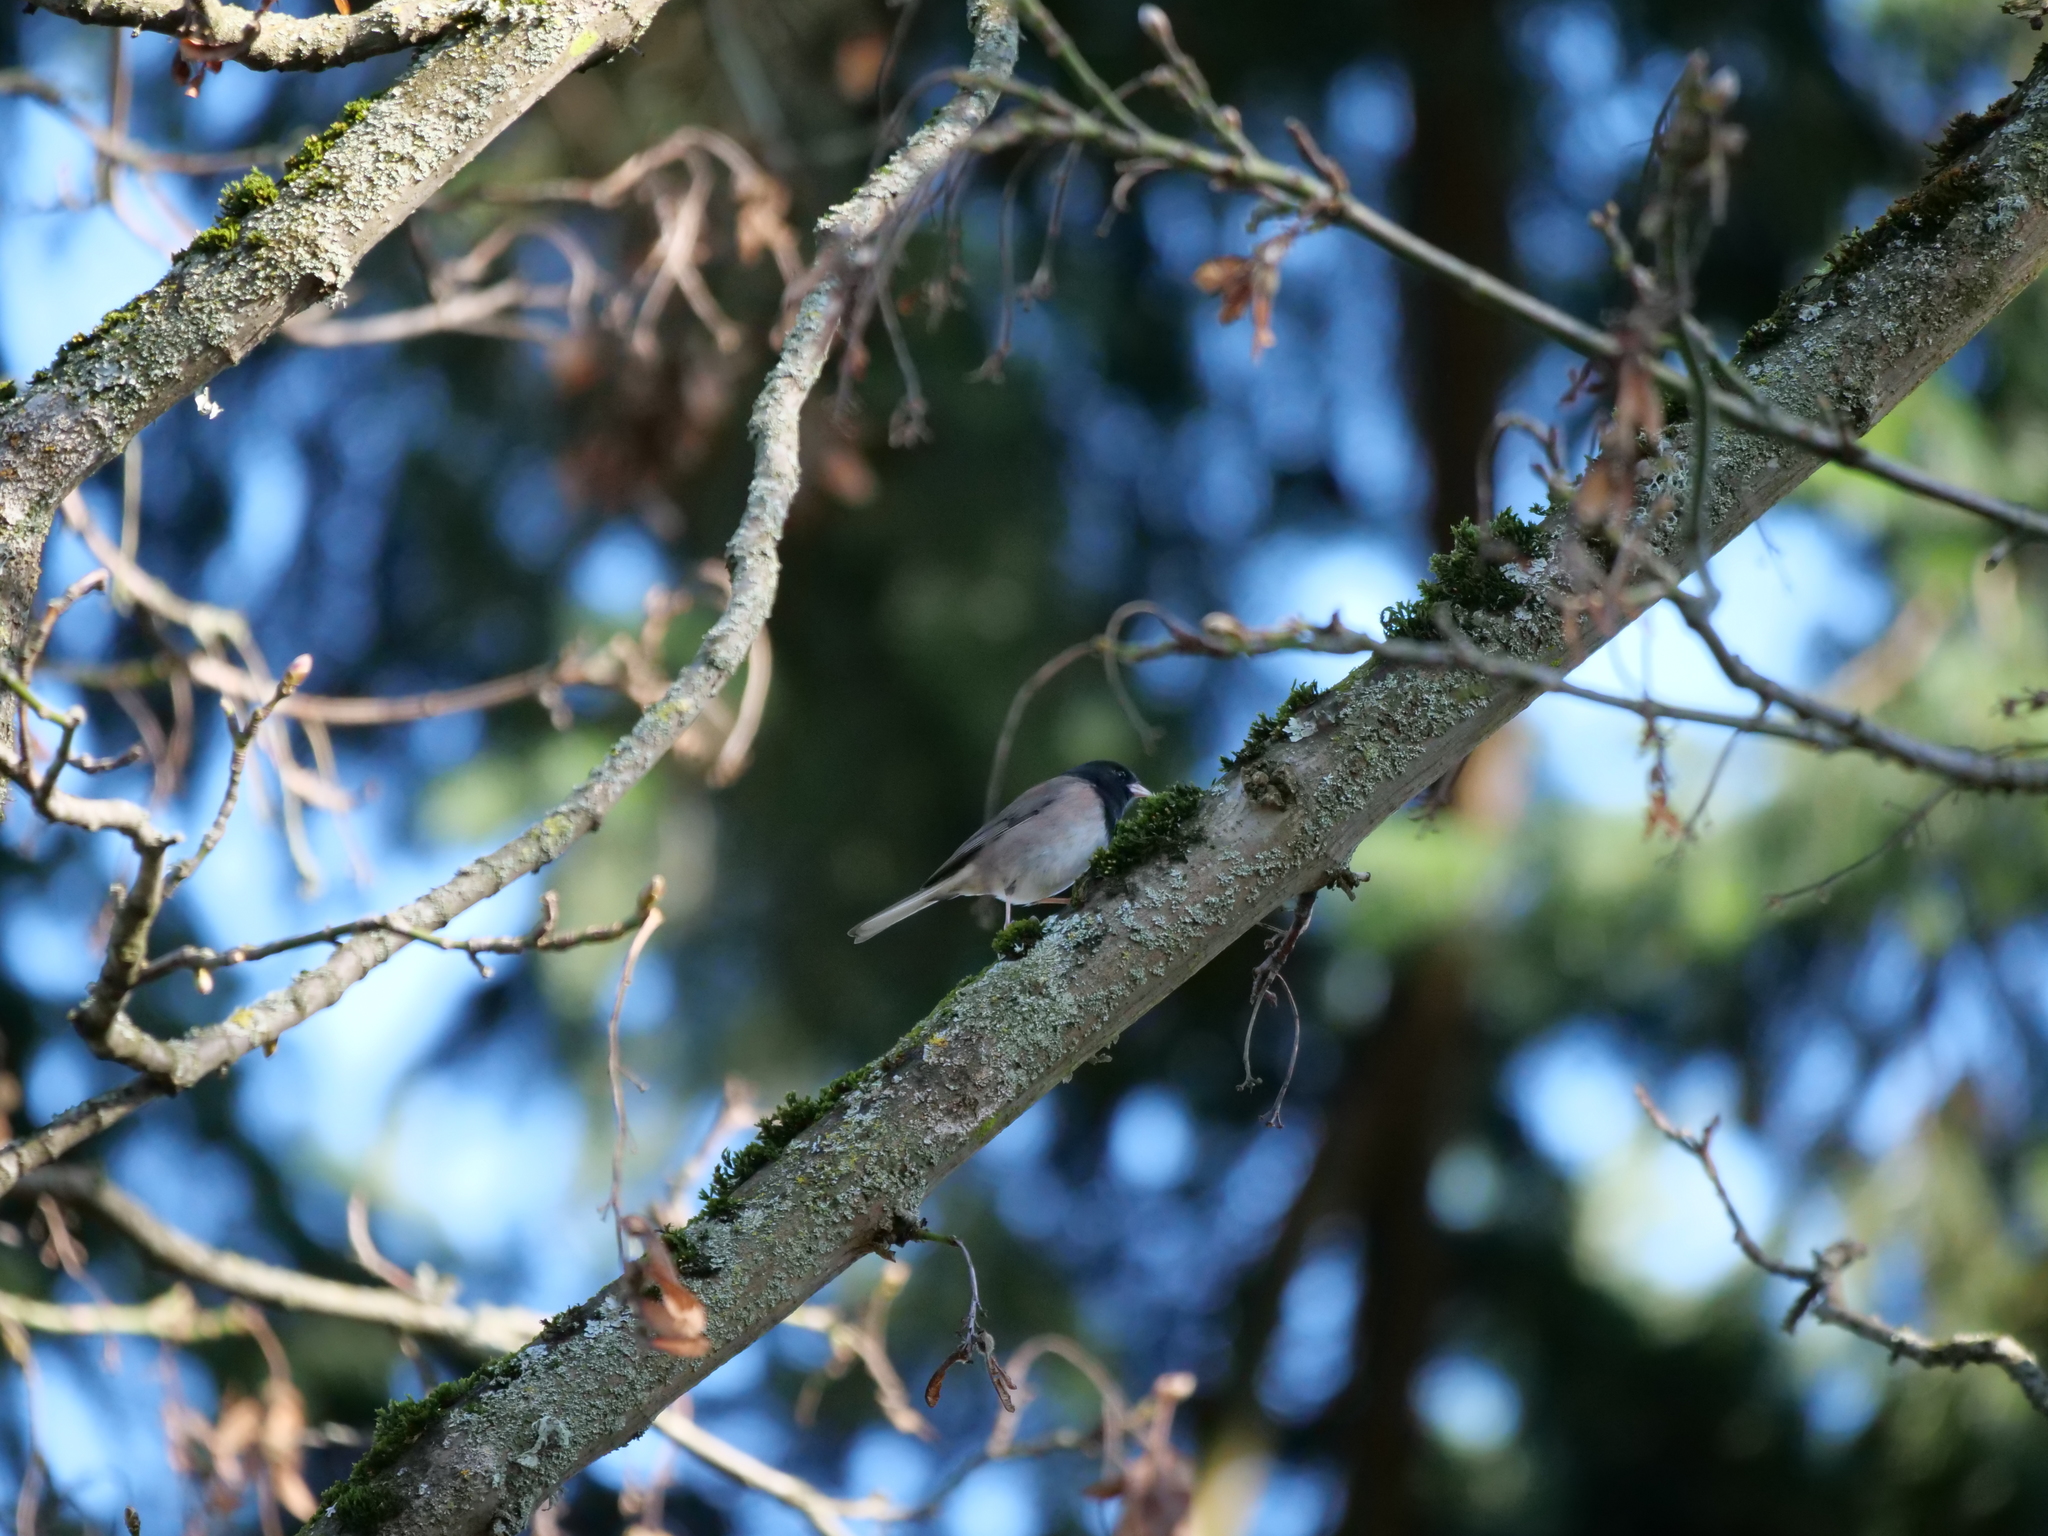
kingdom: Animalia
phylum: Chordata
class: Aves
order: Passeriformes
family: Passerellidae
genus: Junco
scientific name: Junco hyemalis
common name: Dark-eyed junco
